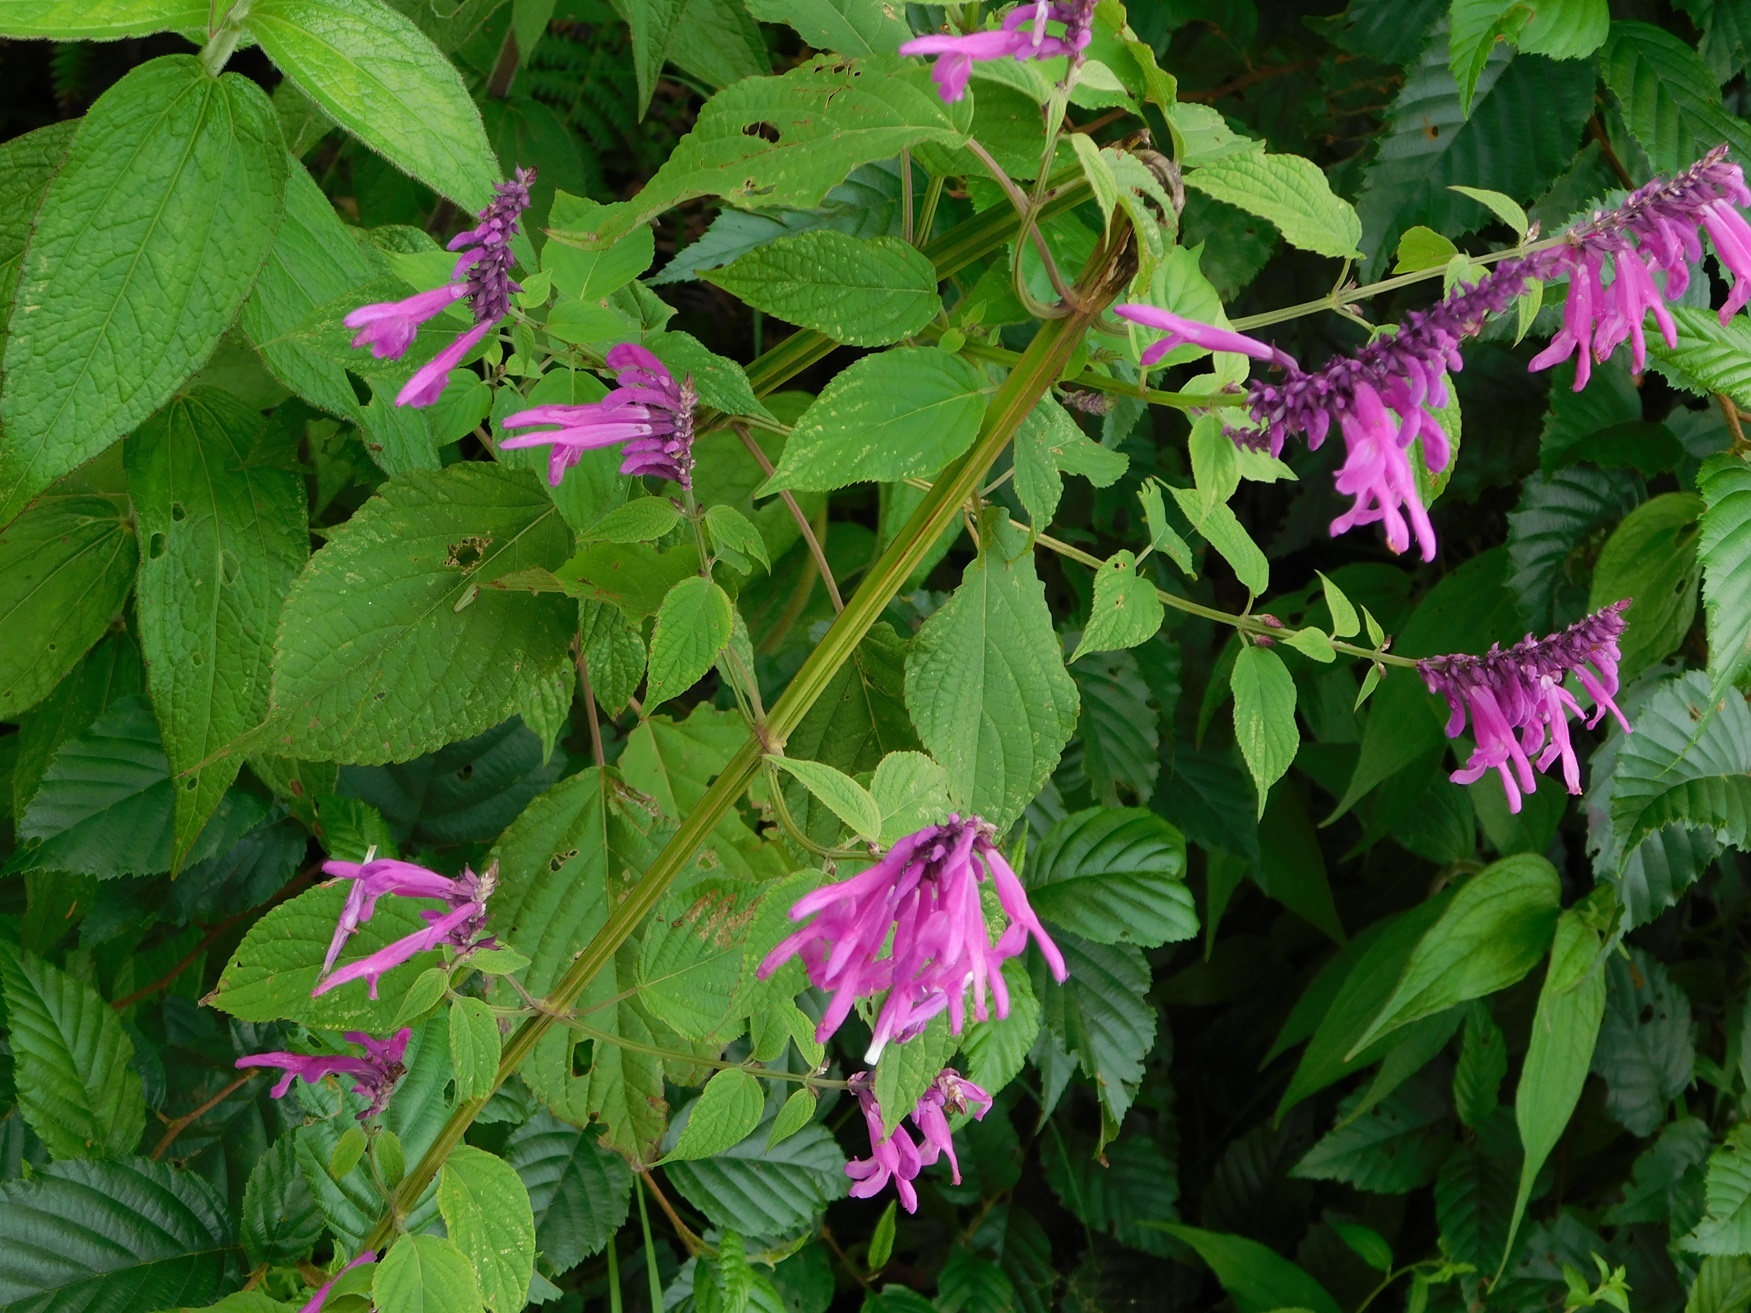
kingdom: Plantae
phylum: Tracheophyta
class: Magnoliopsida
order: Lamiales
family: Lamiaceae
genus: Salvia
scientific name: Salvia purpurea
